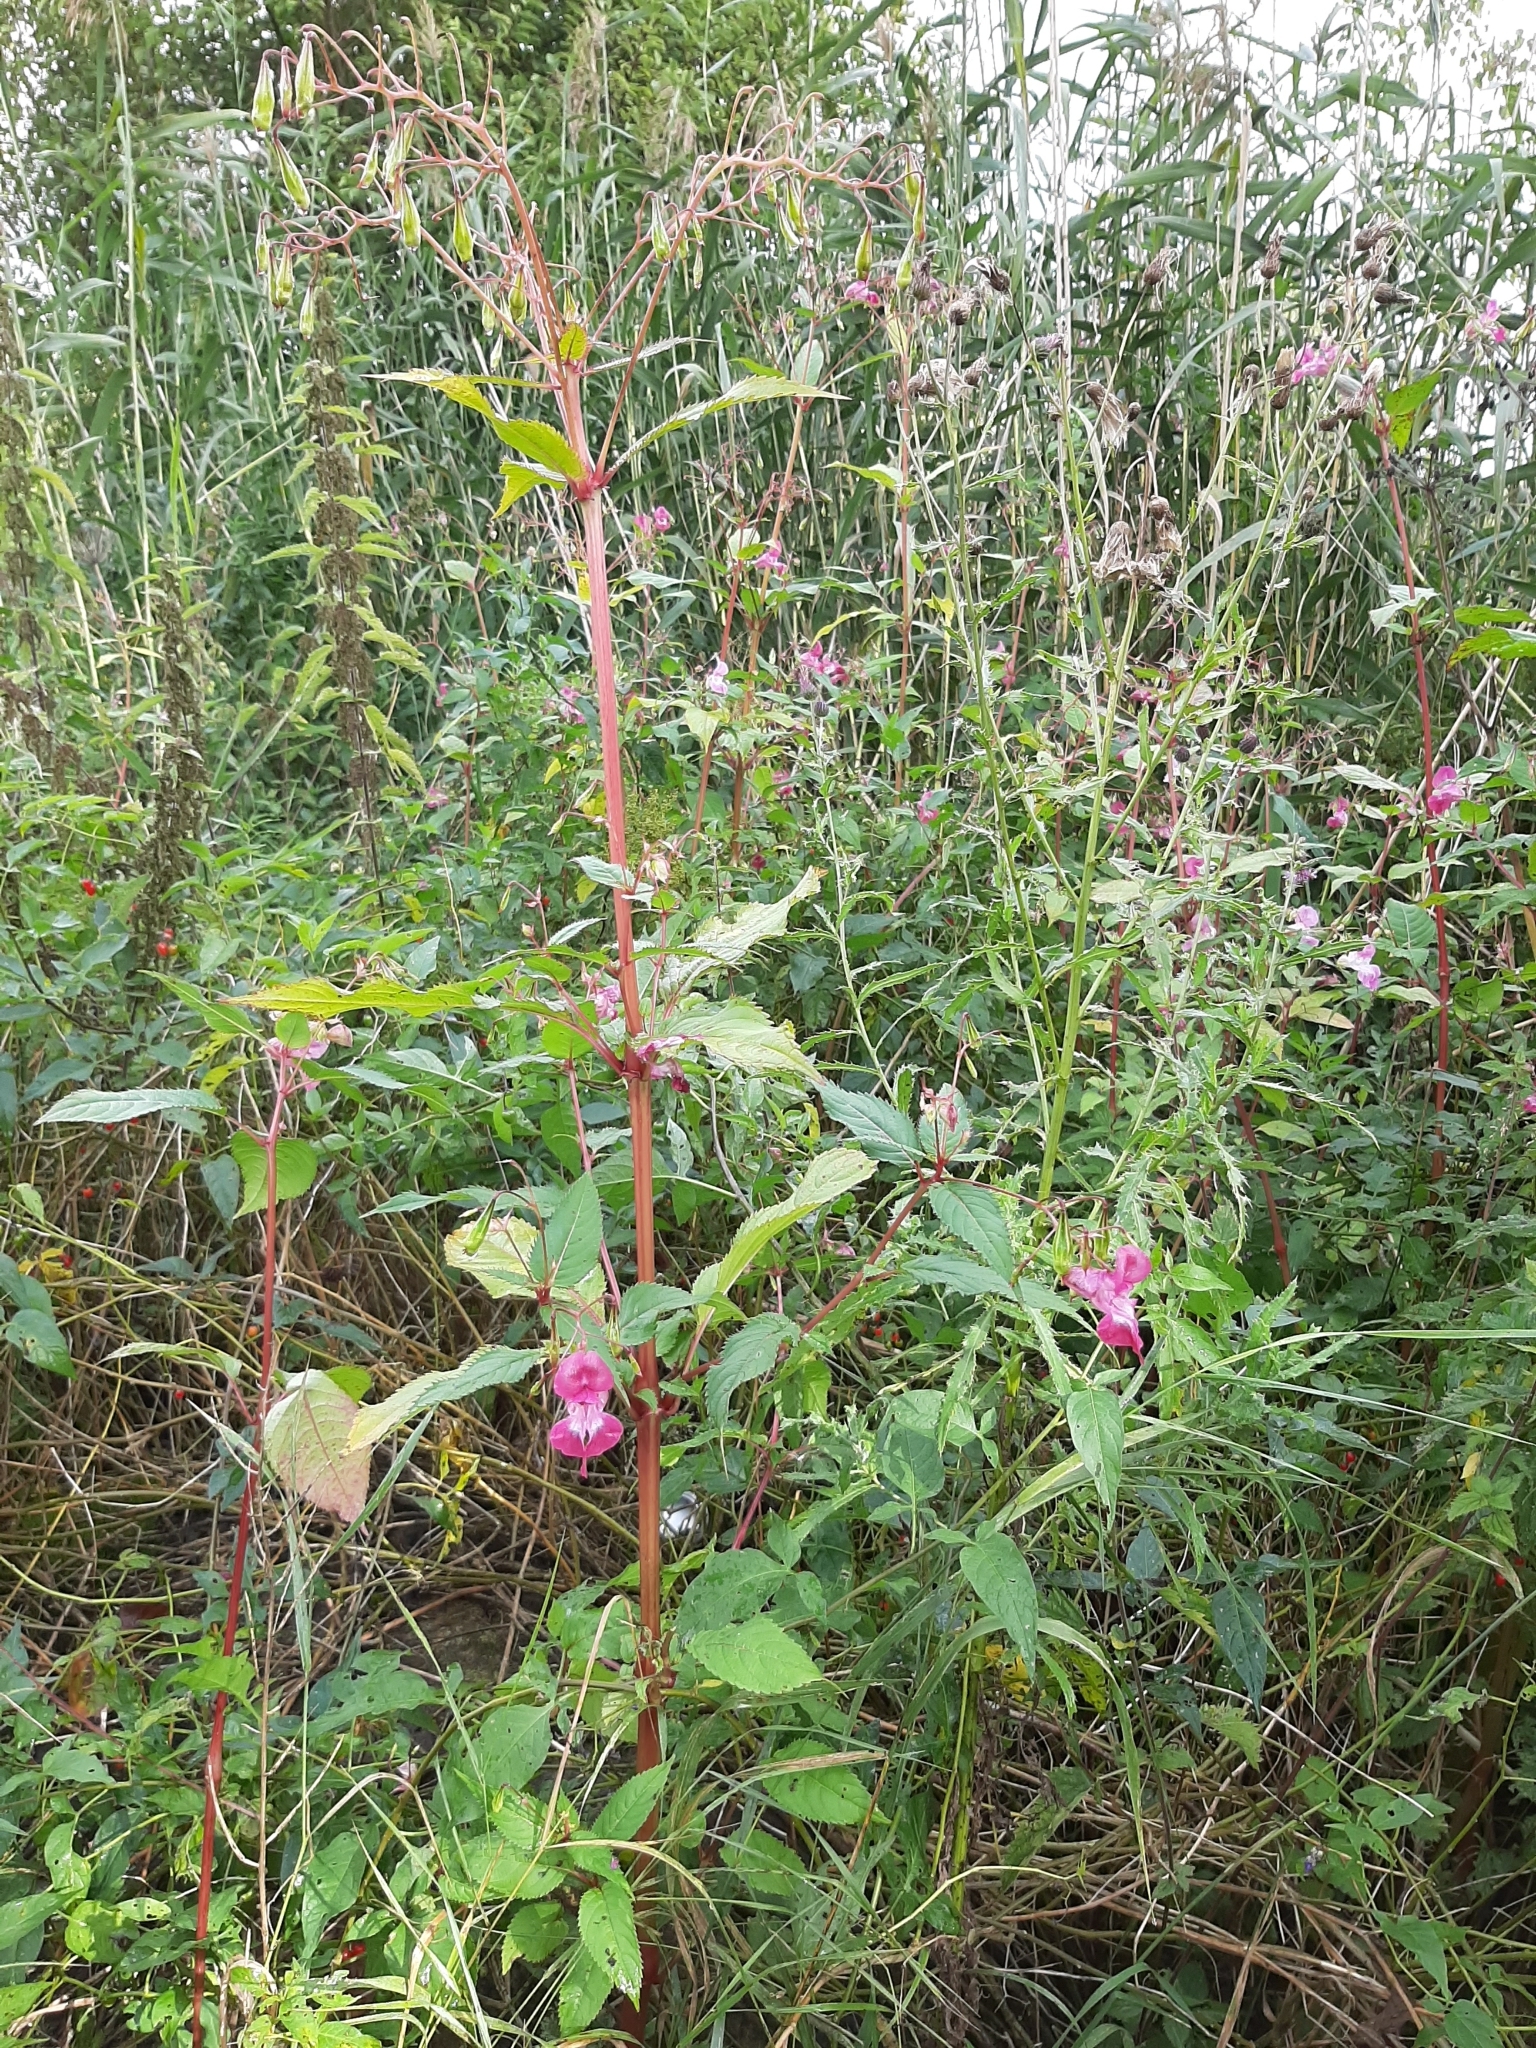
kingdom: Plantae
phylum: Tracheophyta
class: Magnoliopsida
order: Ericales
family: Balsaminaceae
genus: Impatiens
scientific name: Impatiens glandulifera
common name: Himalayan balsam
